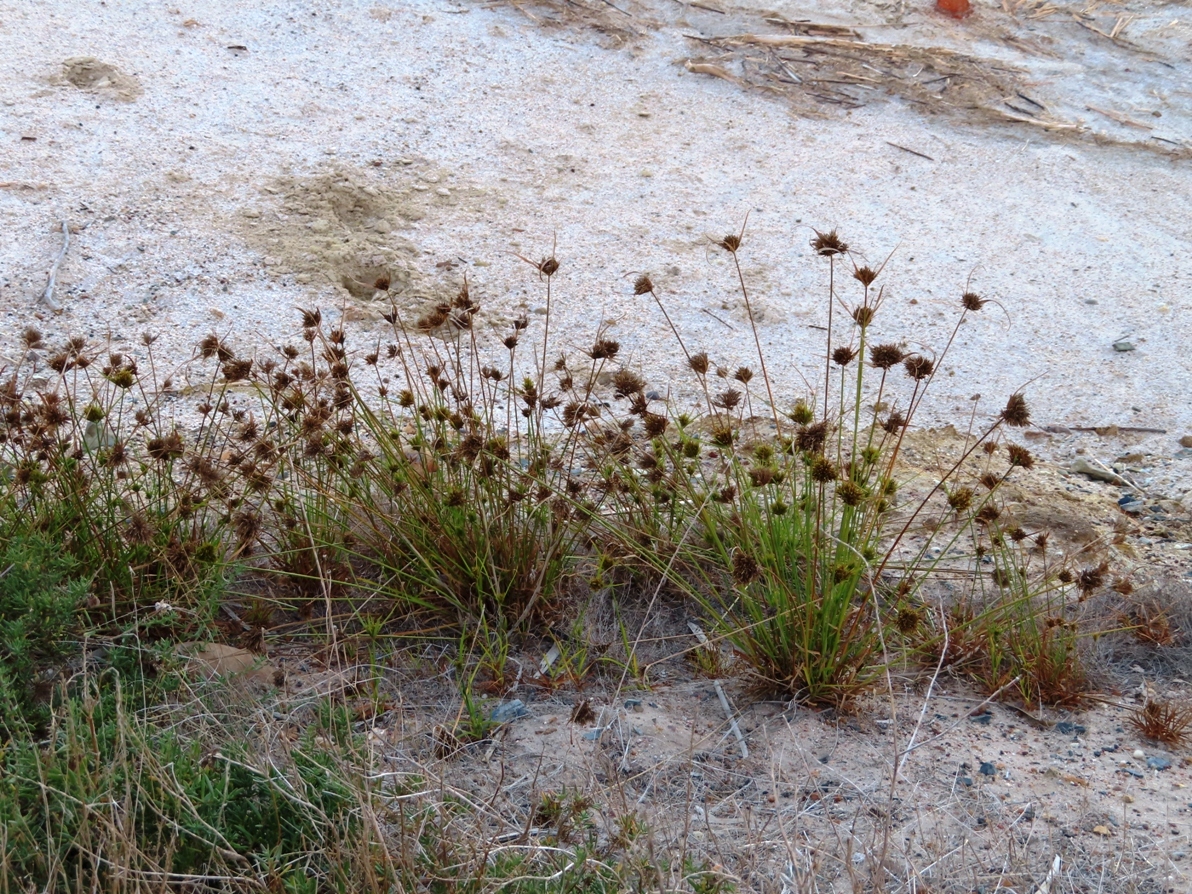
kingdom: Plantae
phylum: Tracheophyta
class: Liliopsida
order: Poales
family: Cyperaceae
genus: Cyperus
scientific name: Cyperus polystachyos
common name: Bunchy flat sedge
